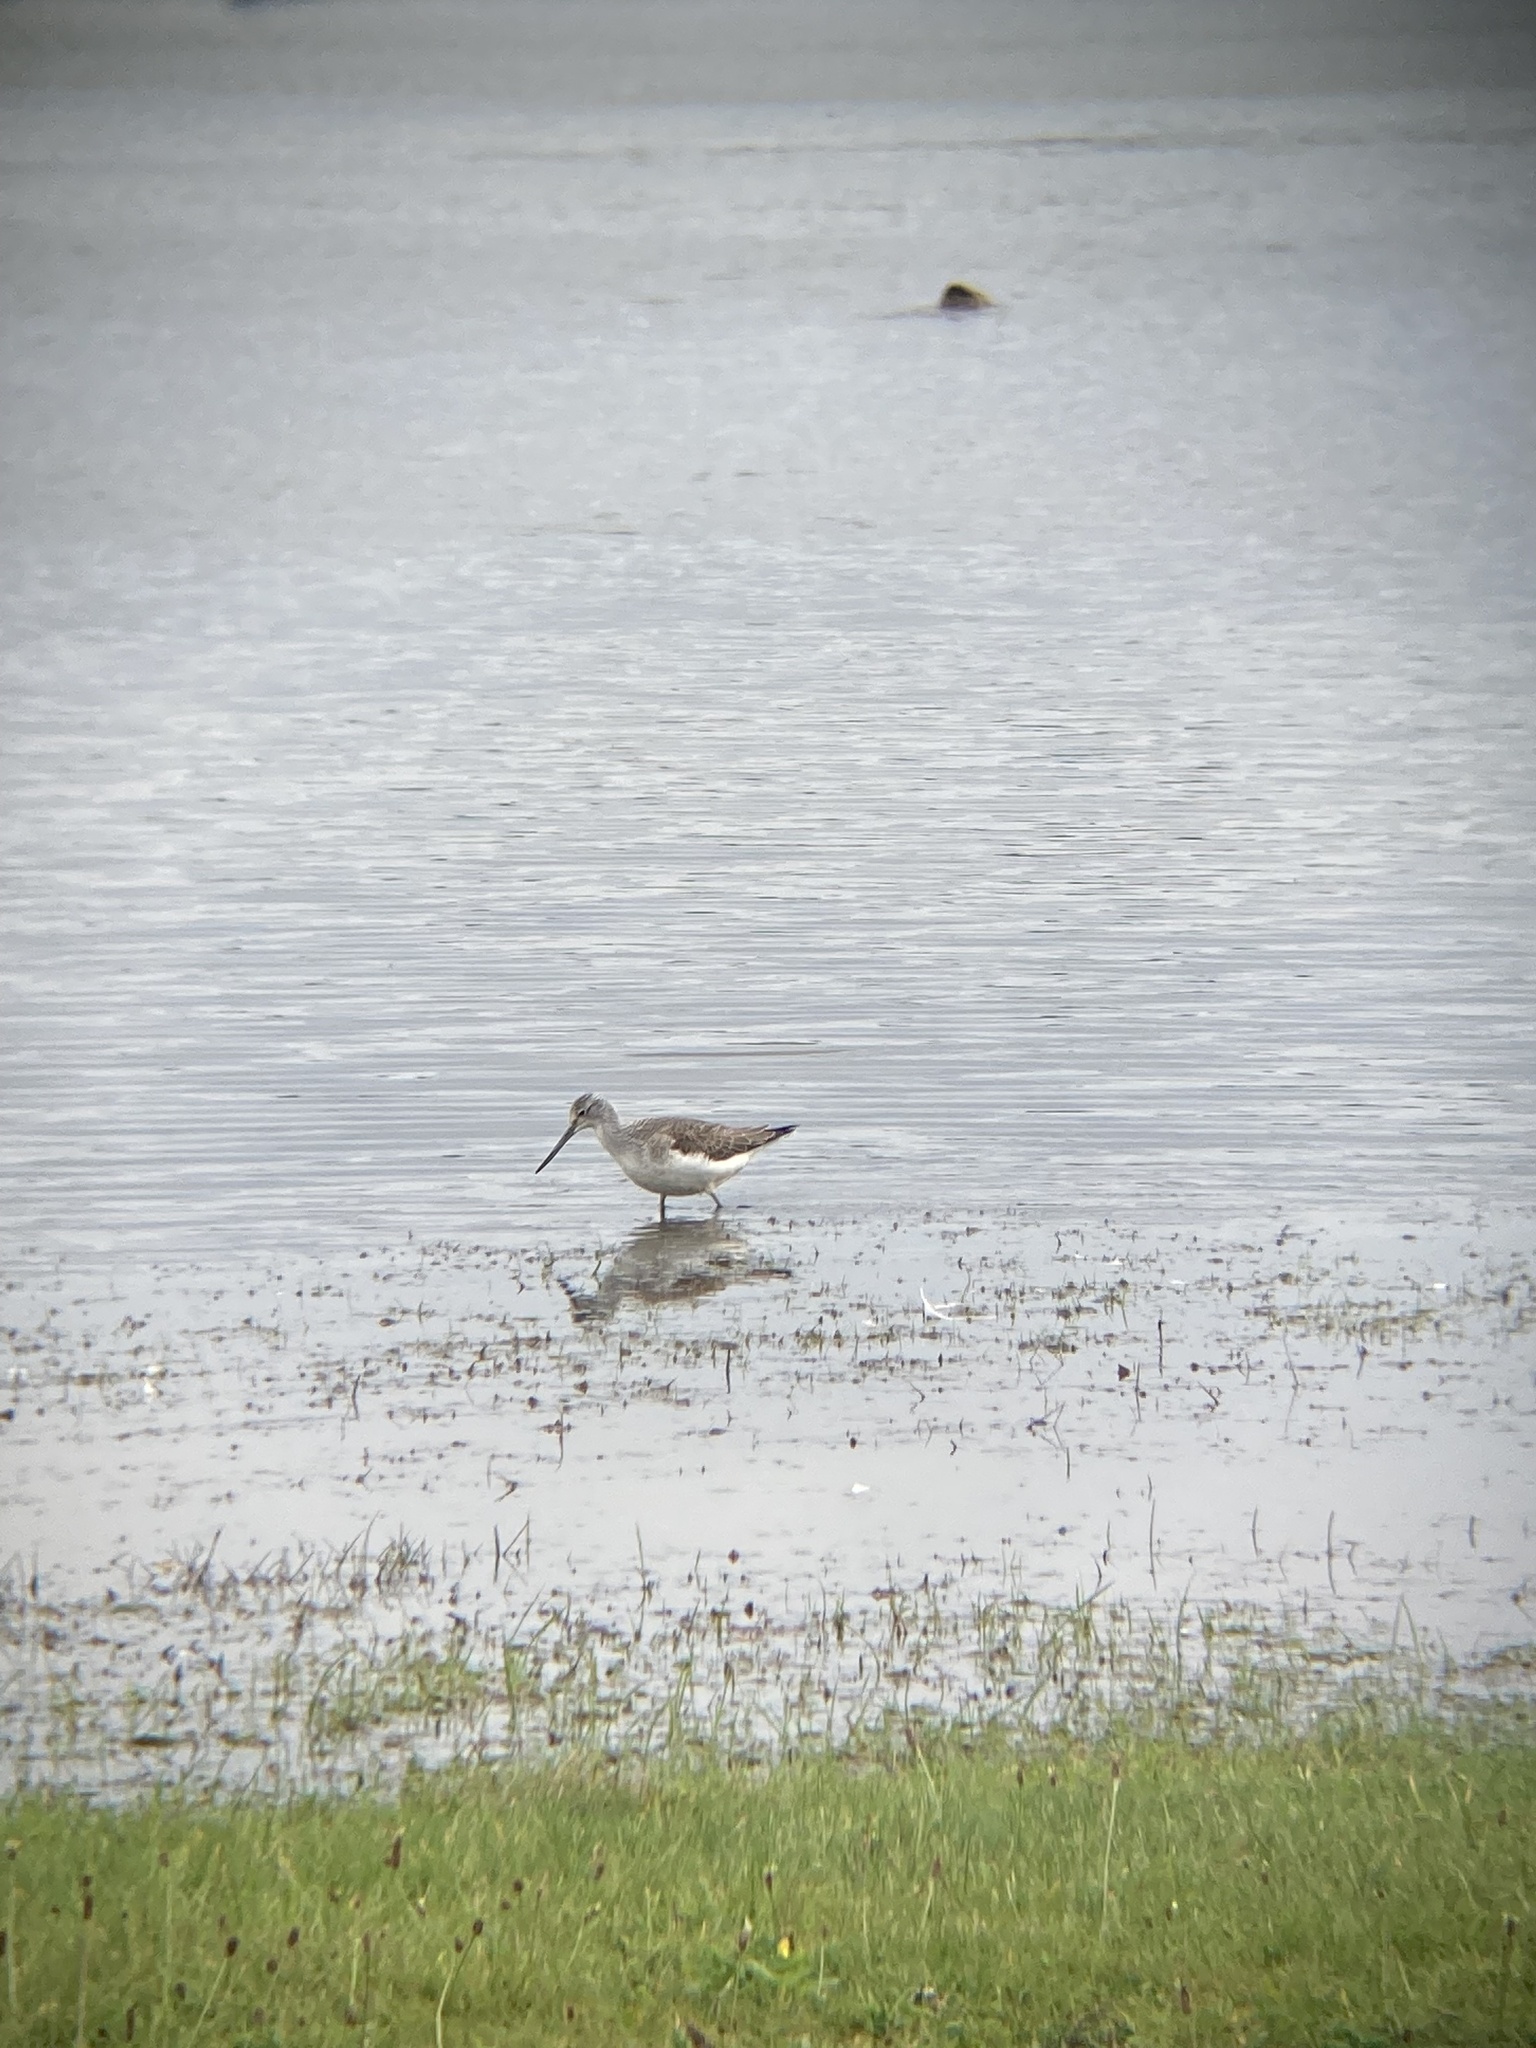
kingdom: Animalia
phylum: Chordata
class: Aves
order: Charadriiformes
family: Scolopacidae
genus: Tringa
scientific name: Tringa nebularia
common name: Common greenshank
